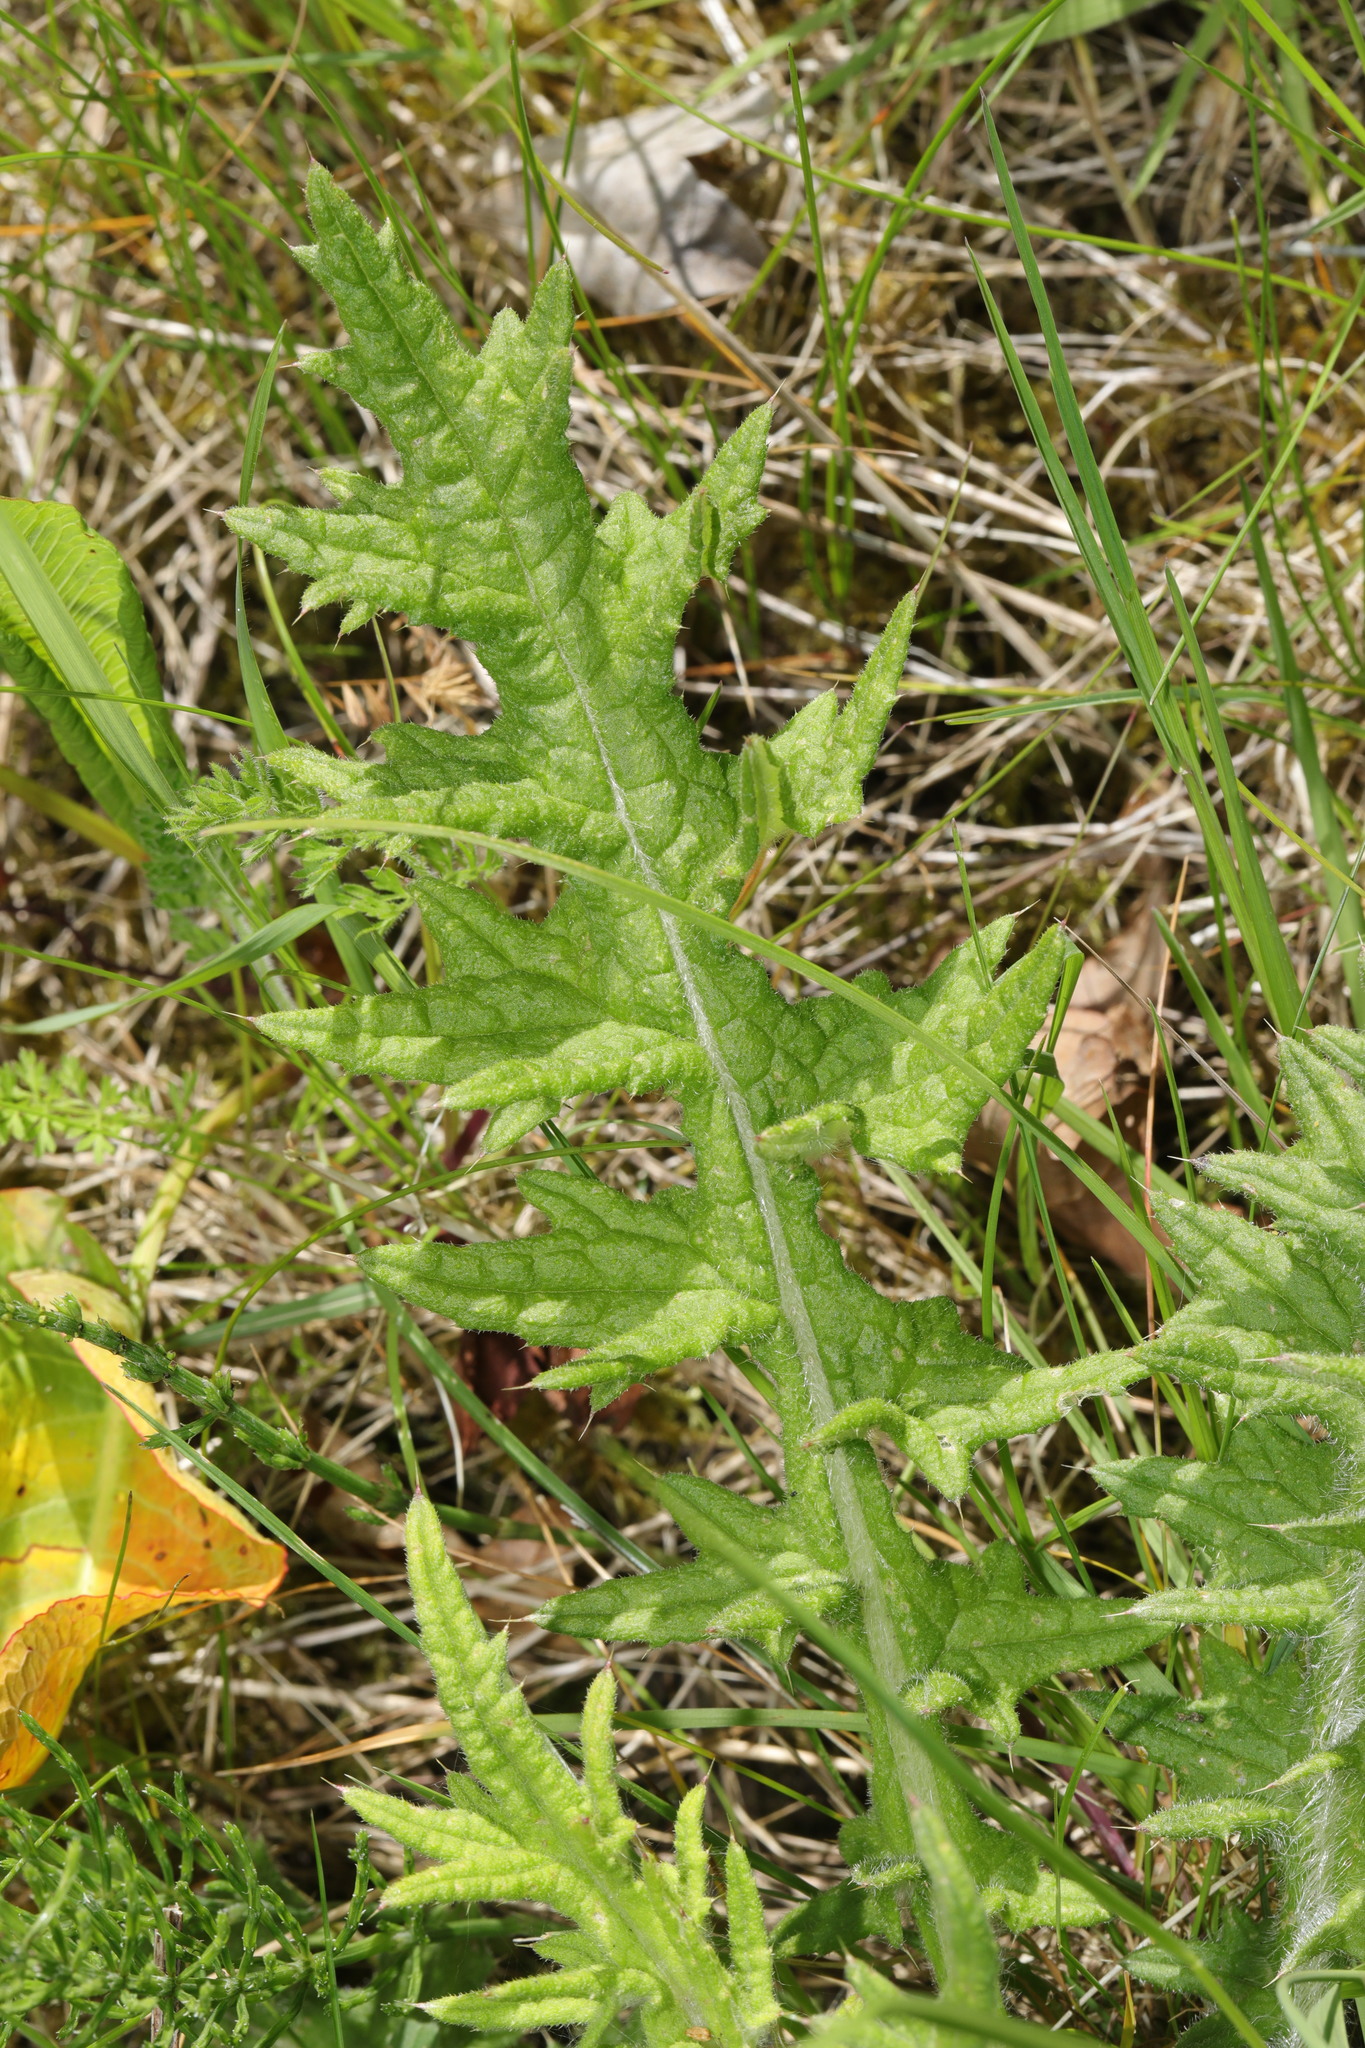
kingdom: Plantae
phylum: Tracheophyta
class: Magnoliopsida
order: Asterales
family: Asteraceae
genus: Cirsium
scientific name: Cirsium vulgare
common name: Bull thistle
